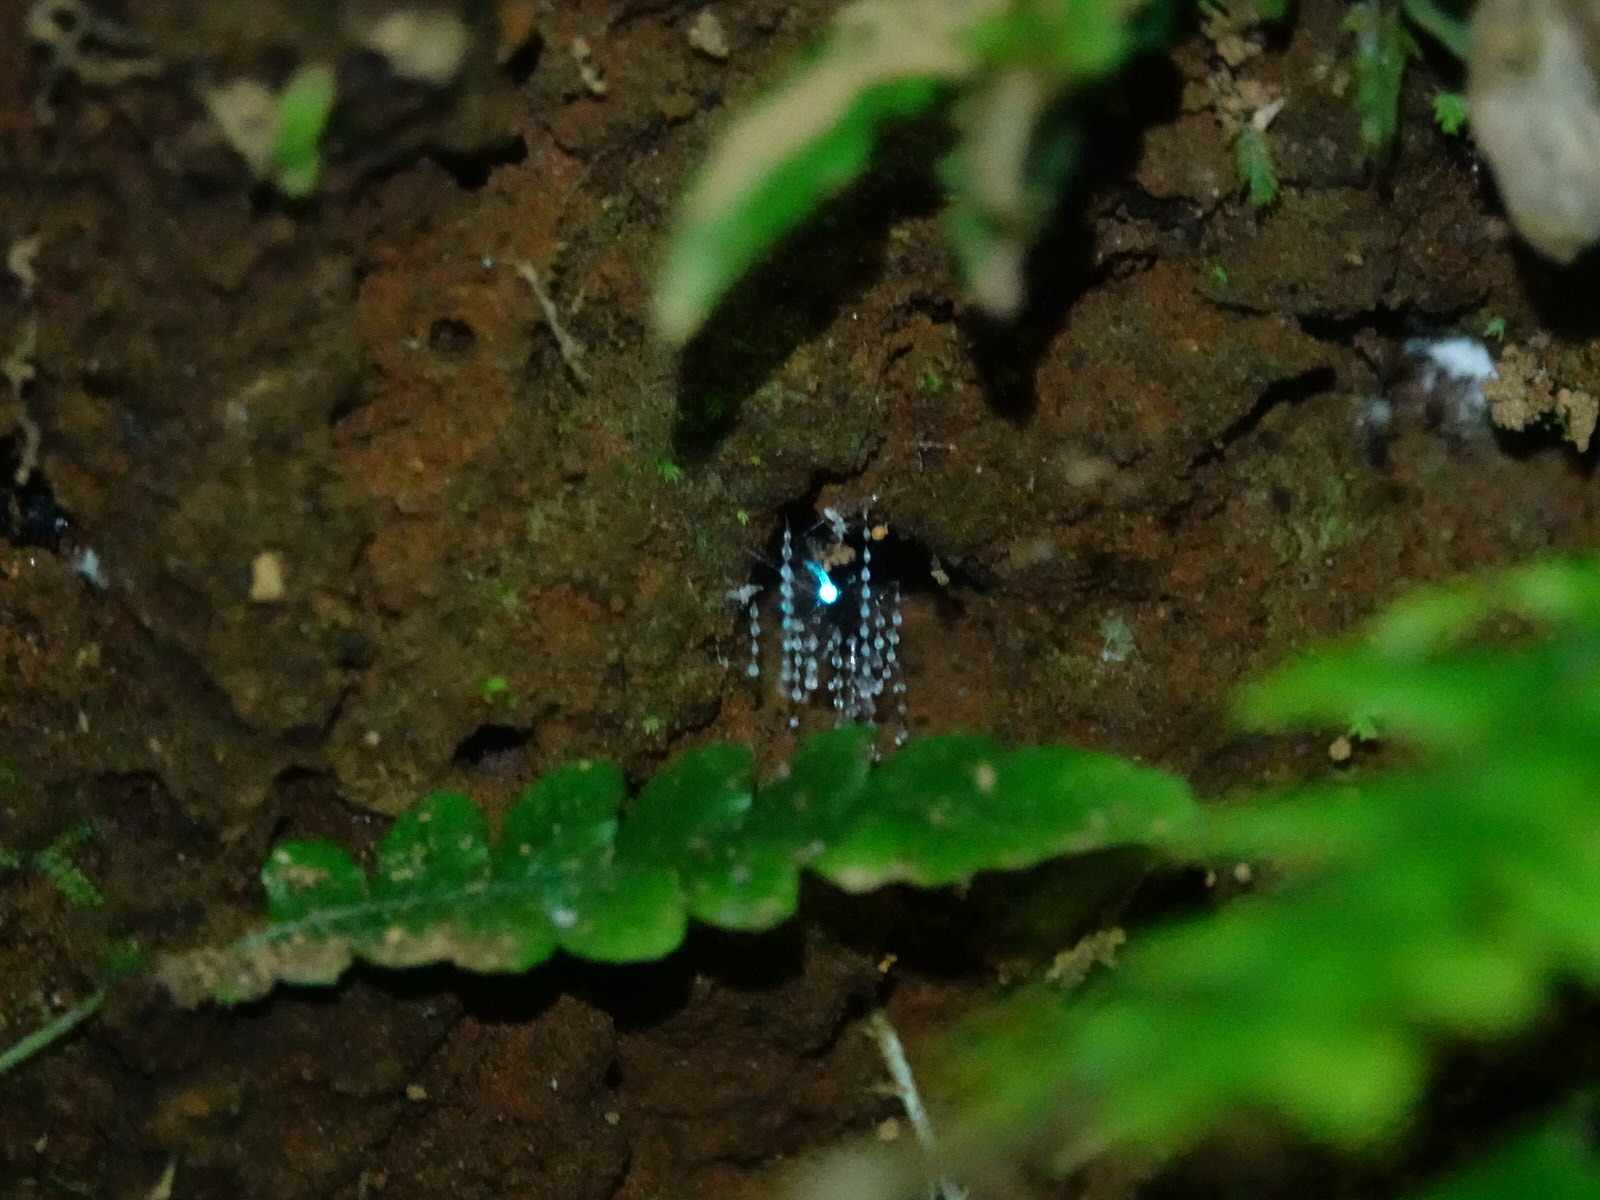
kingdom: Animalia
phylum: Arthropoda
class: Insecta
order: Diptera
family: Keroplatidae
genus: Arachnocampa
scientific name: Arachnocampa luminosa
